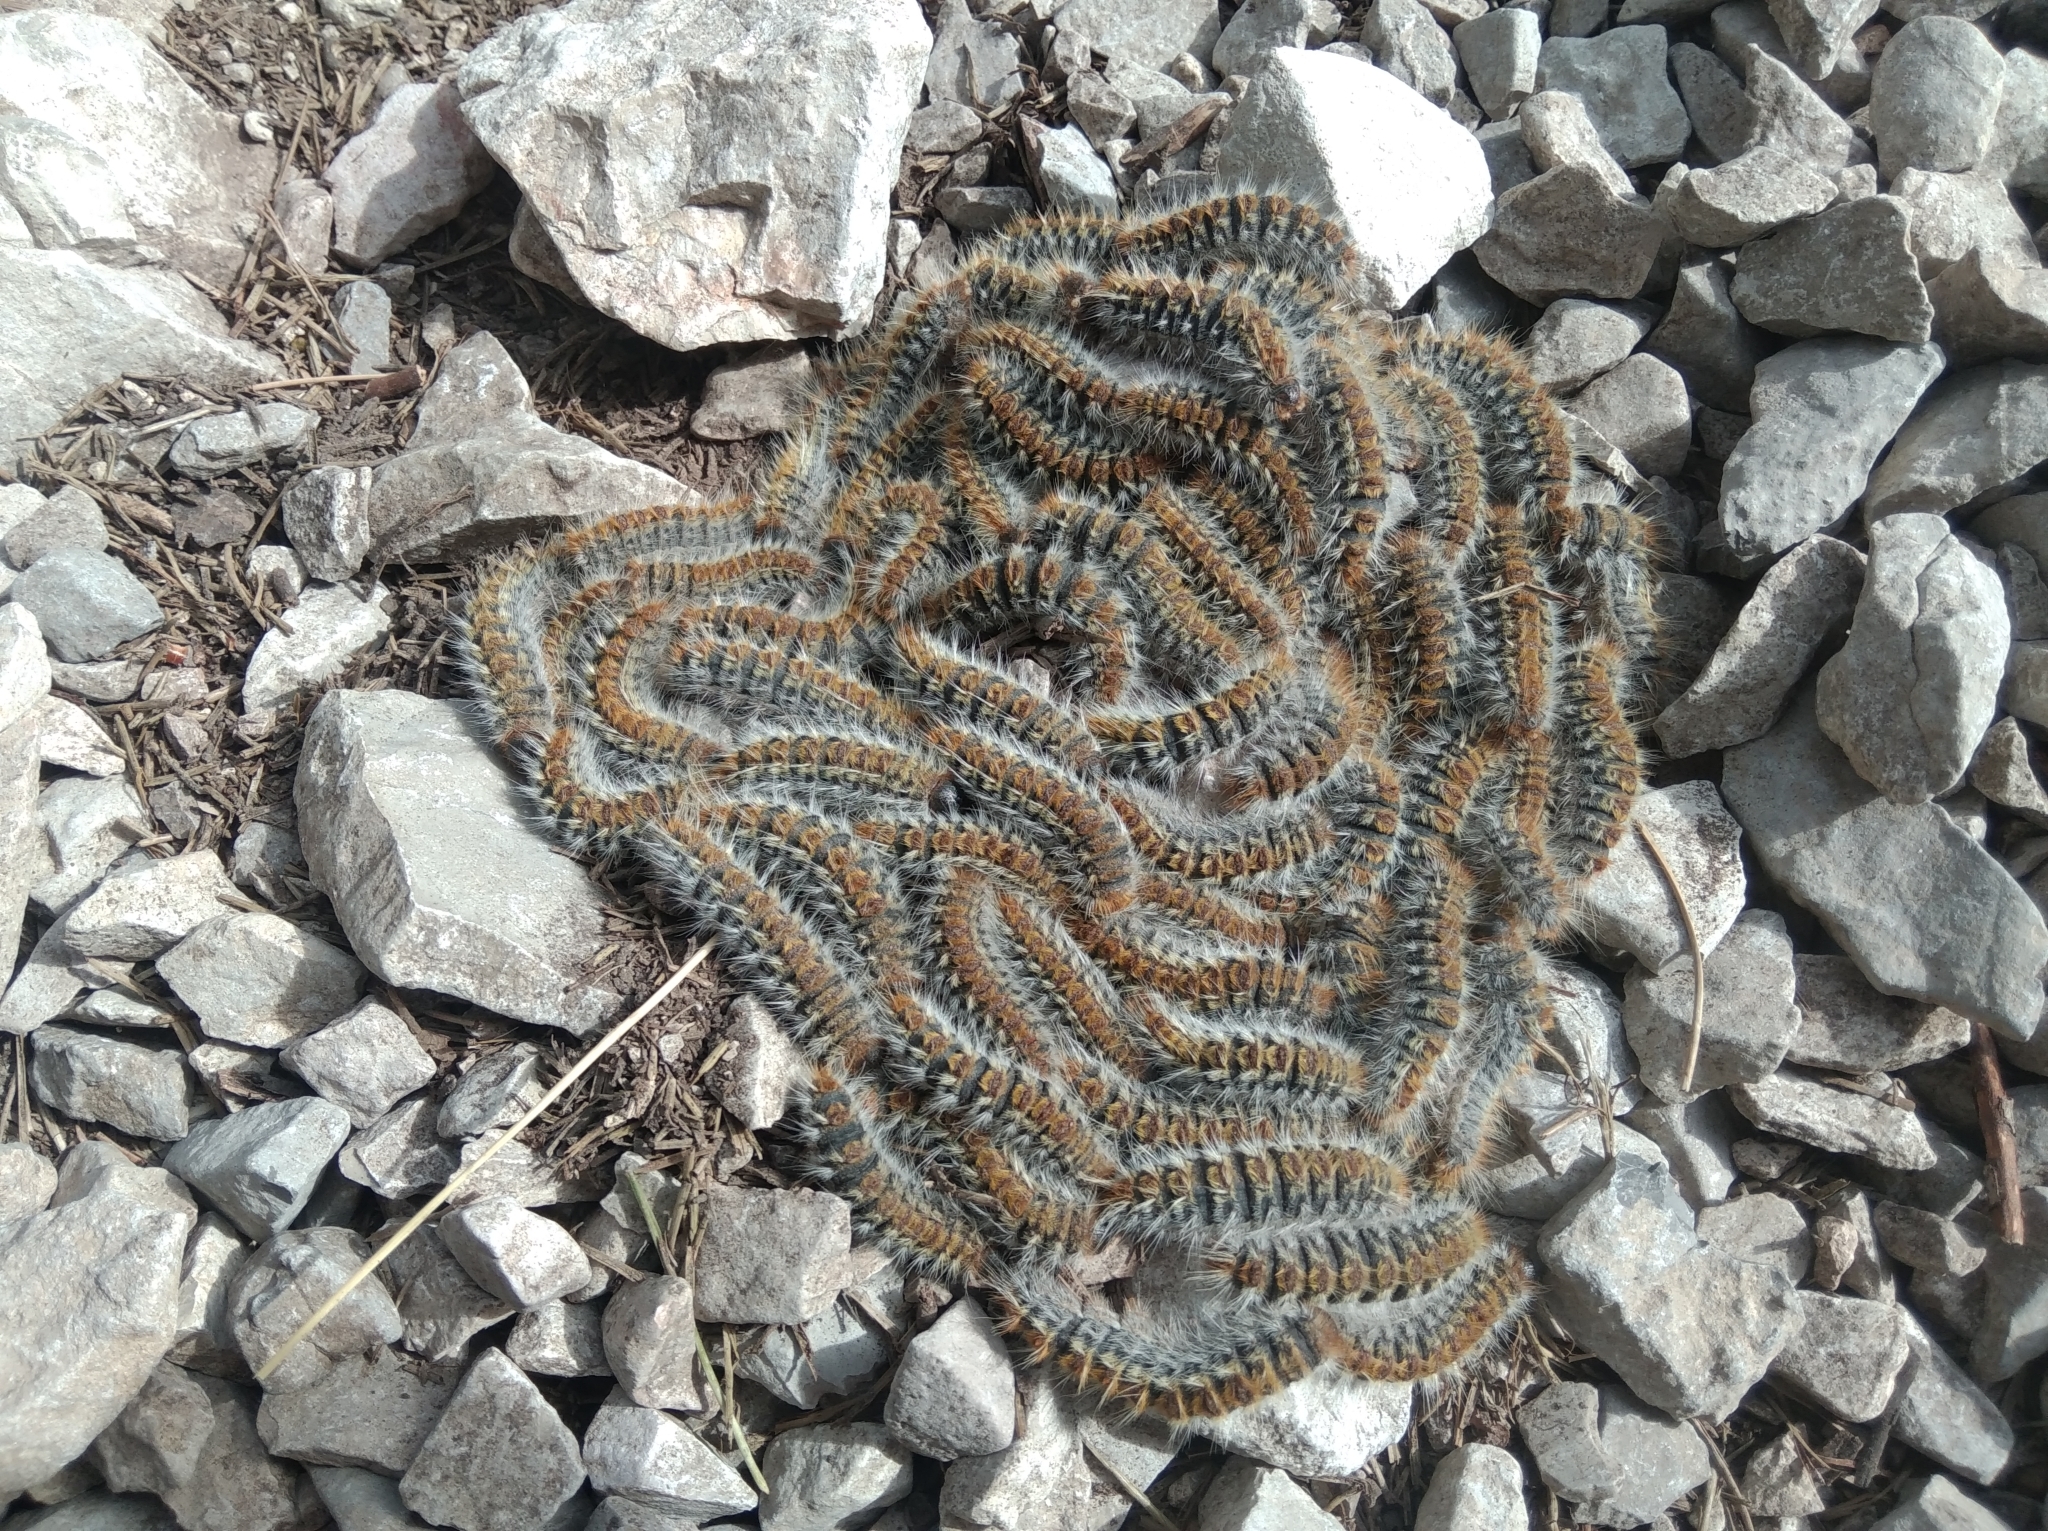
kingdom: Animalia
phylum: Arthropoda
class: Insecta
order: Lepidoptera
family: Notodontidae
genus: Thaumetopoea
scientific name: Thaumetopoea pityocampa
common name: Pine processionary
